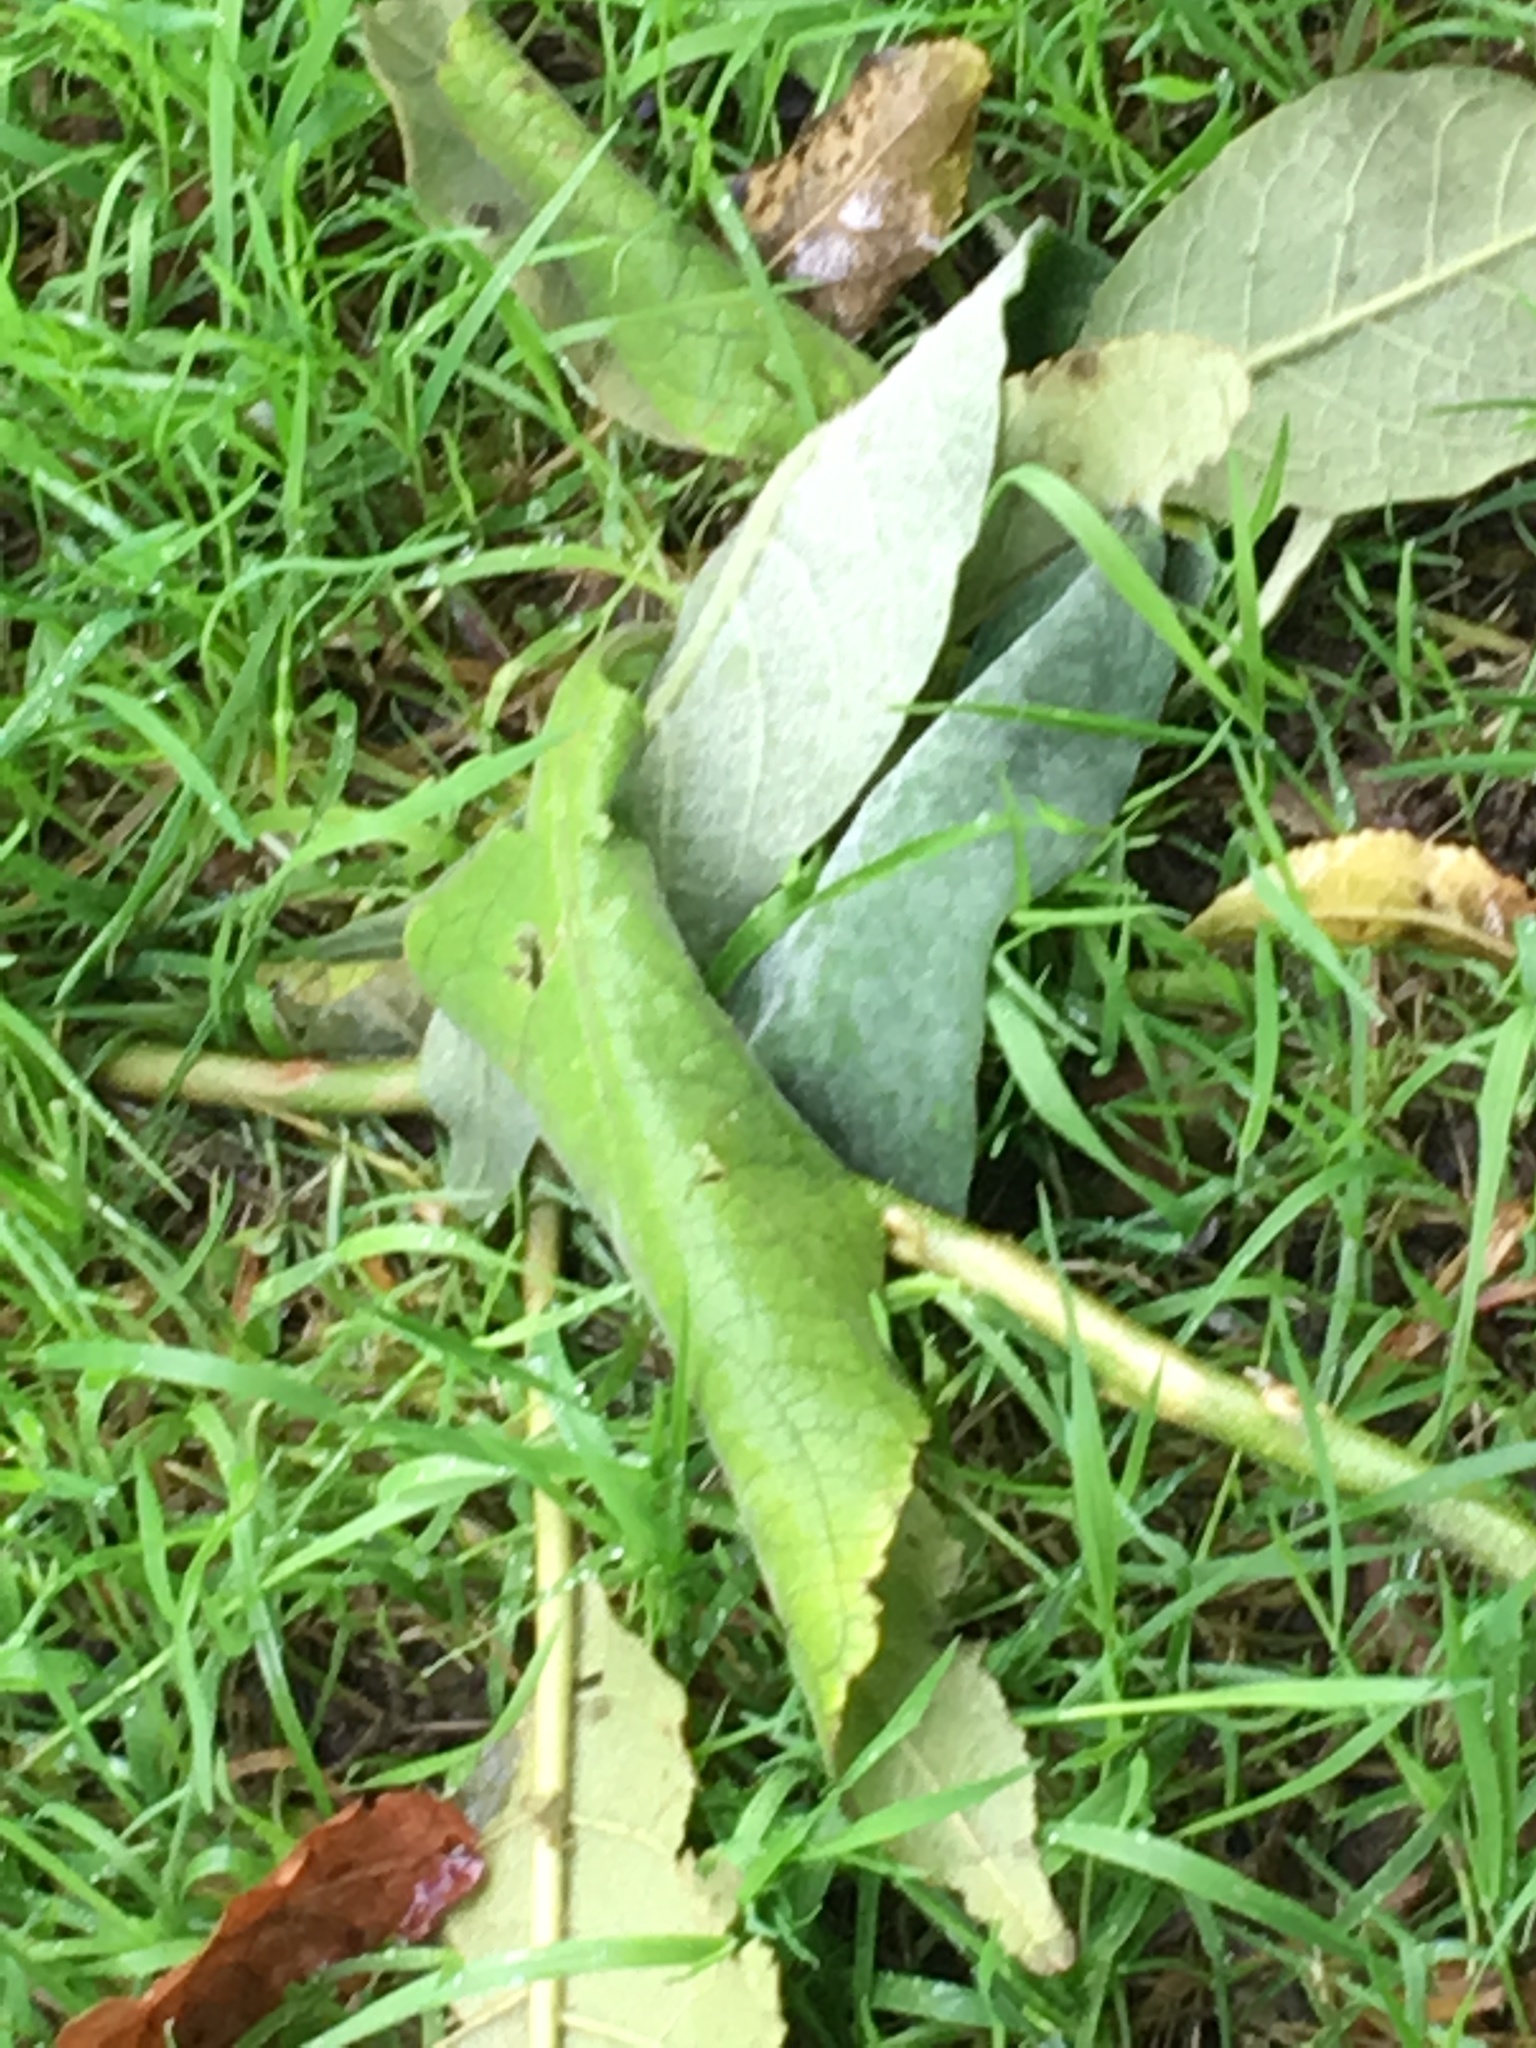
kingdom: Plantae
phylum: Tracheophyta
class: Magnoliopsida
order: Solanales
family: Solanaceae
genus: Solanum
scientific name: Solanum mauritianum
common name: Earleaf nightshade
